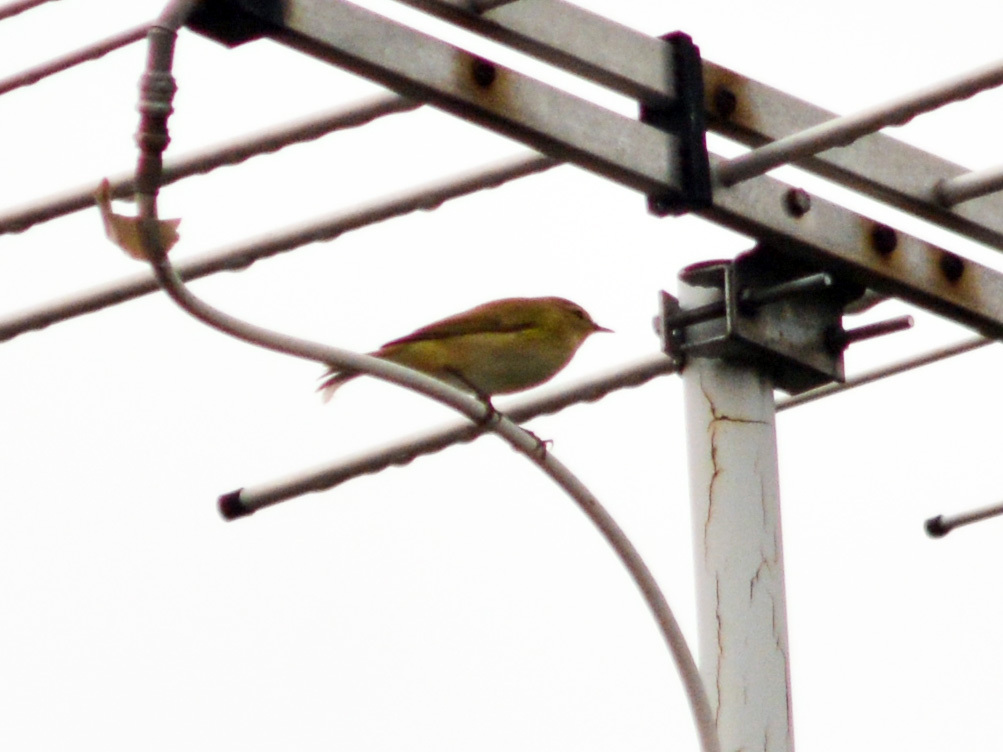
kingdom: Animalia
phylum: Chordata
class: Aves
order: Passeriformes
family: Phylloscopidae
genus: Phylloscopus
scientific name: Phylloscopus collybita
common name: Common chiffchaff
